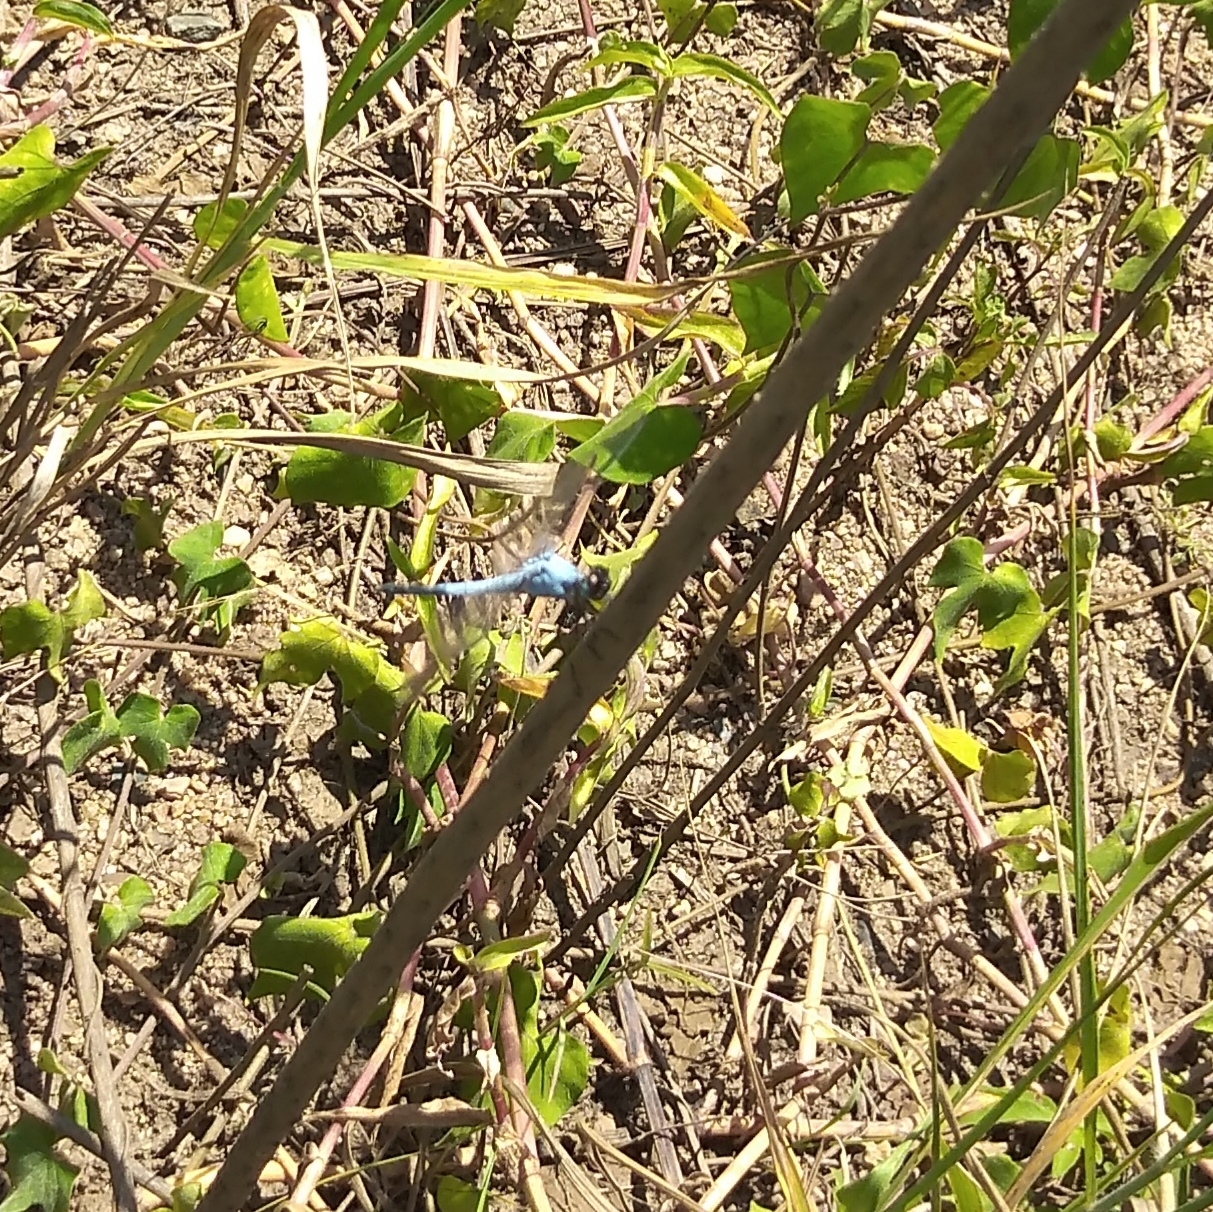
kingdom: Animalia
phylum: Arthropoda
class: Insecta
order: Odonata
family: Libellulidae
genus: Nesciothemis
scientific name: Nesciothemis farinosa
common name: Eastern blacktail
